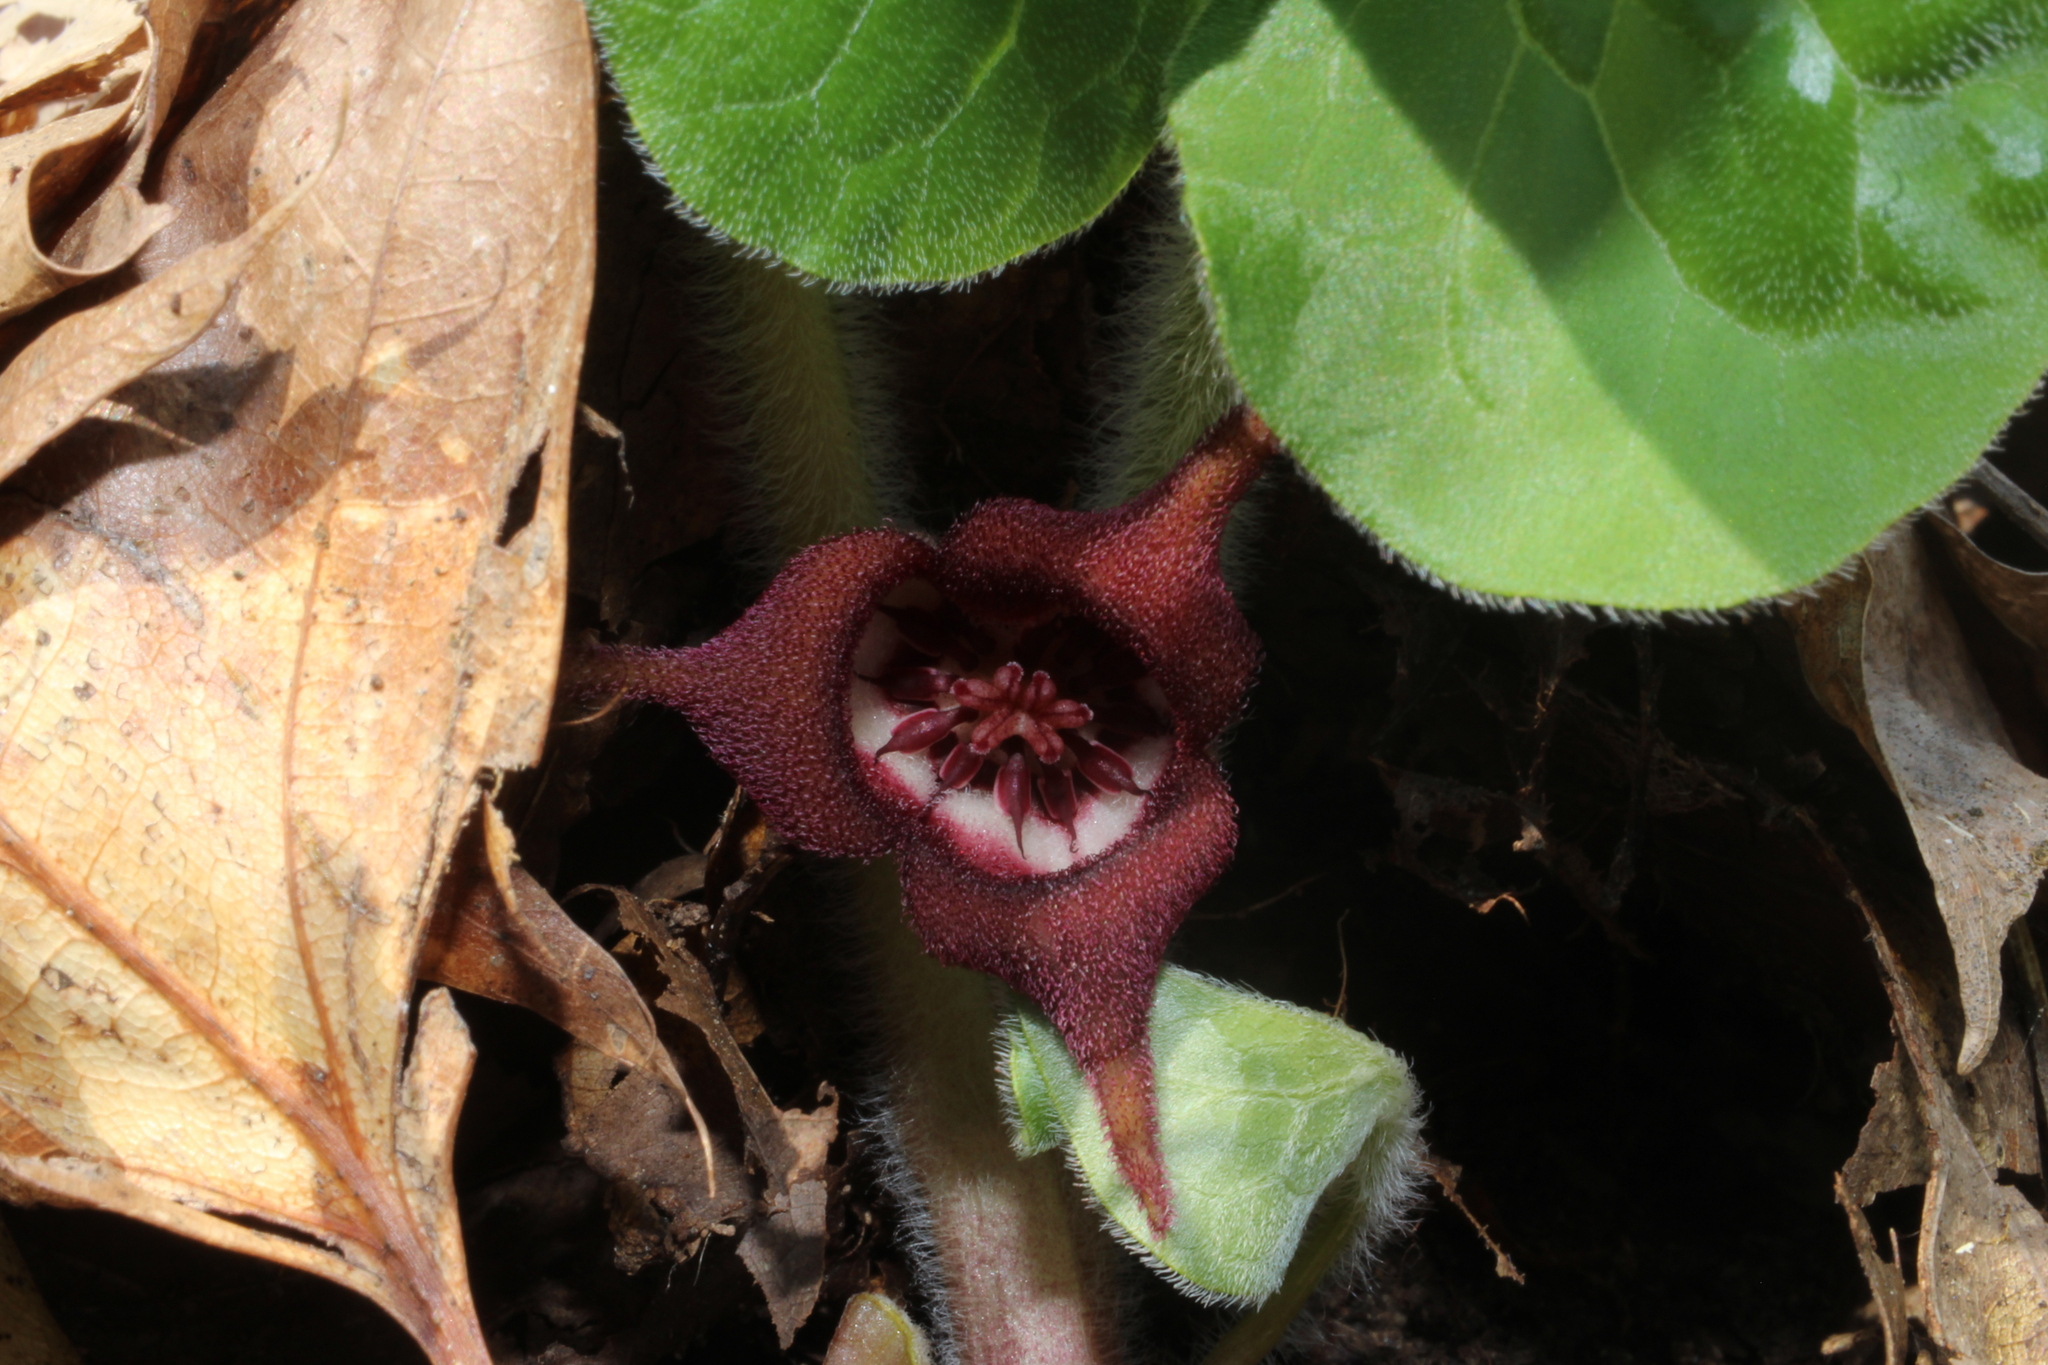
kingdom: Plantae
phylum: Tracheophyta
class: Magnoliopsida
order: Piperales
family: Aristolochiaceae
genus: Asarum
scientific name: Asarum canadense
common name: Wild ginger
